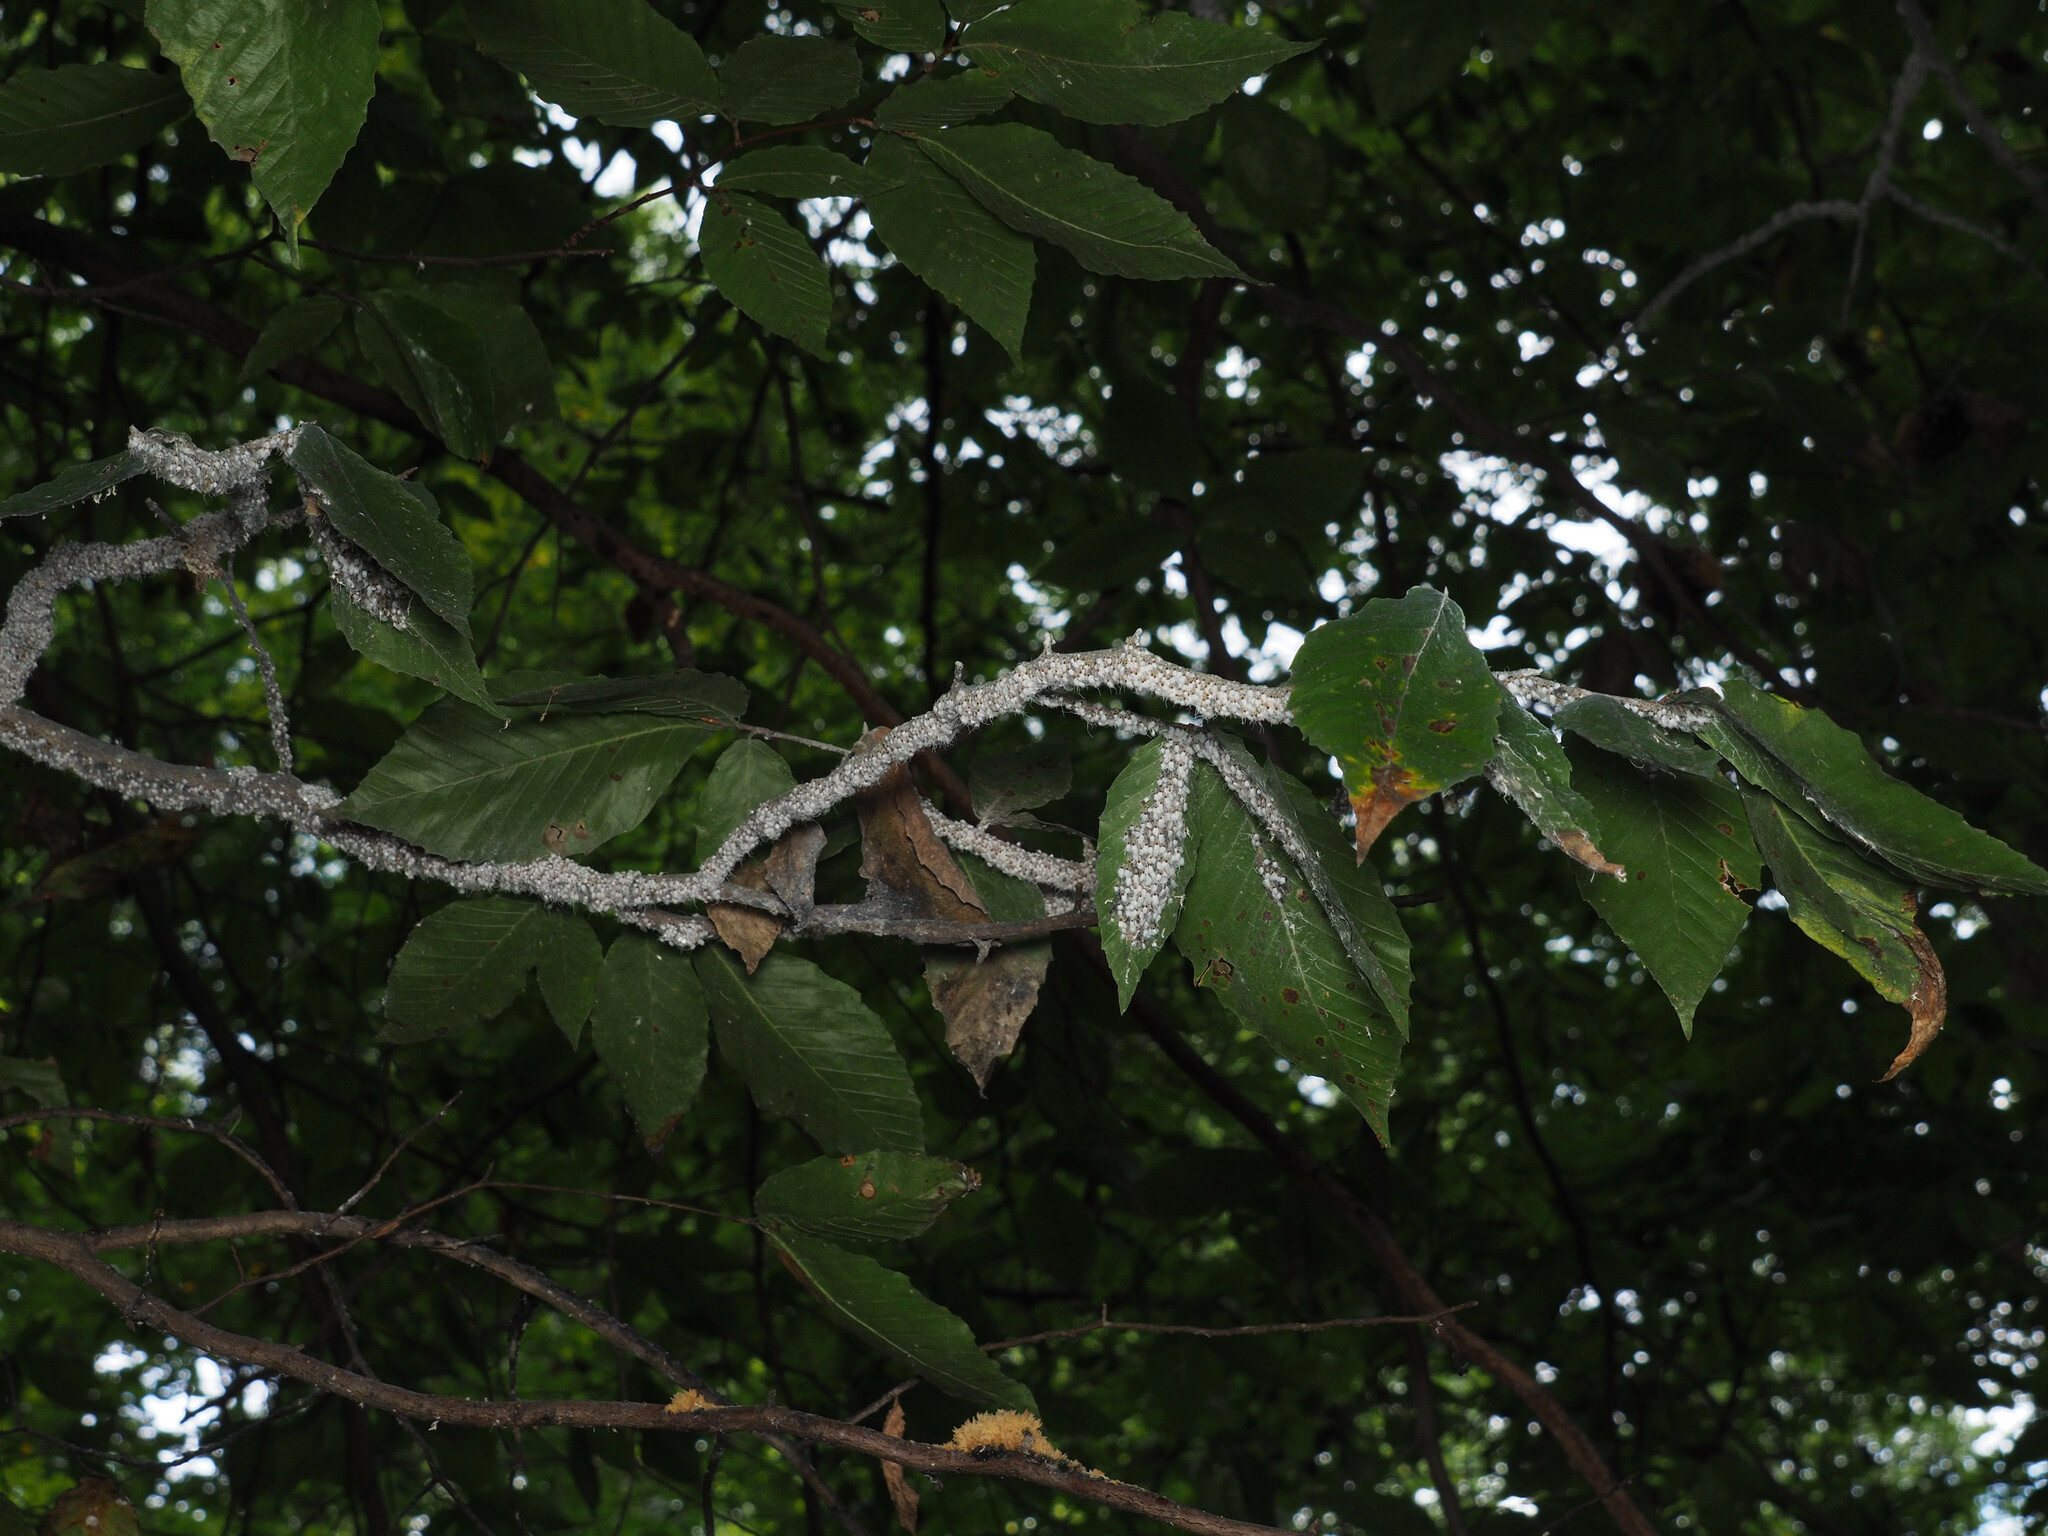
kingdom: Animalia
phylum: Arthropoda
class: Insecta
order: Hemiptera
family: Aphididae
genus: Grylloprociphilus
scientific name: Grylloprociphilus imbricator
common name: Beech blight aphid
